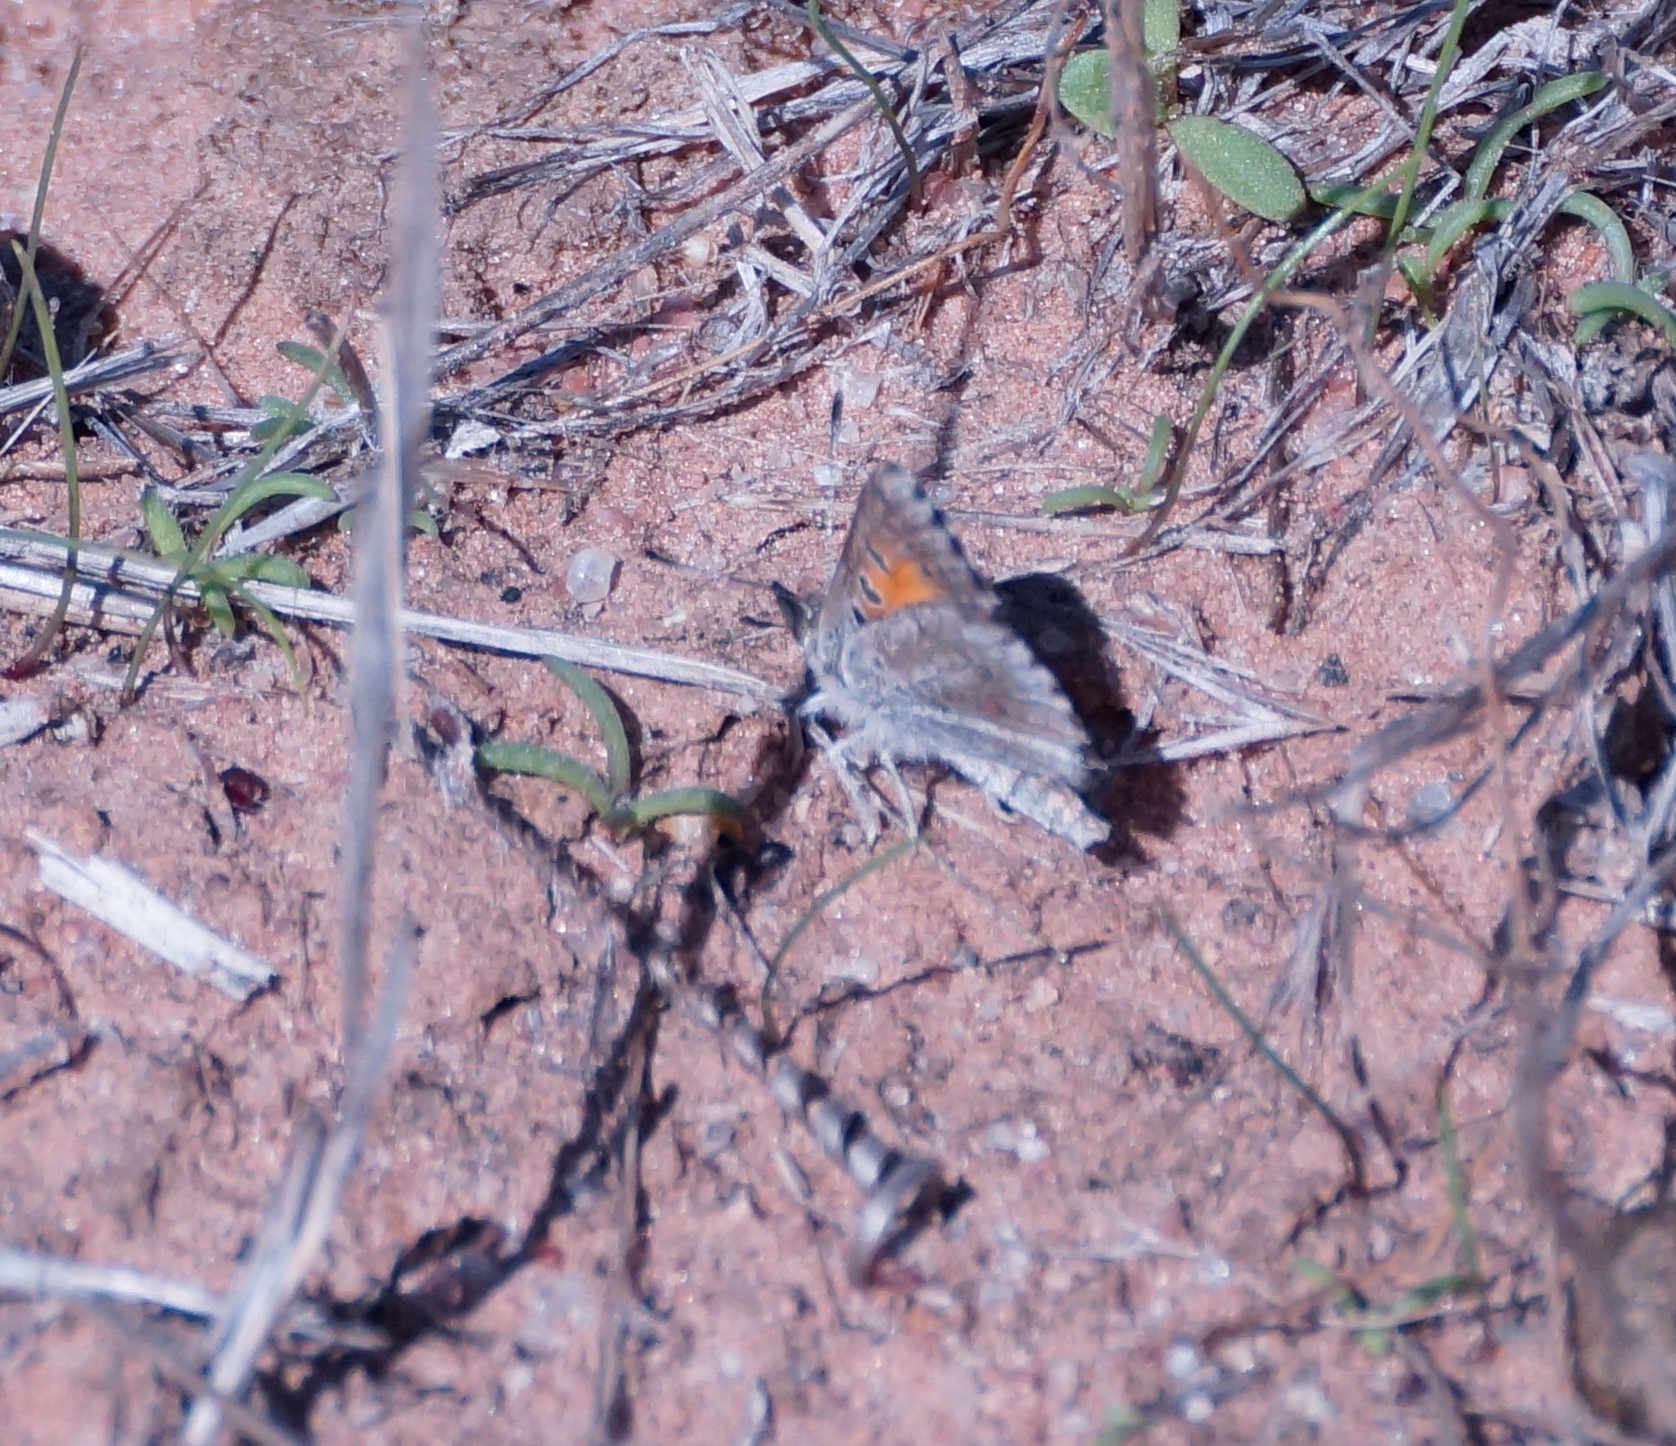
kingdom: Animalia
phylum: Arthropoda
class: Insecta
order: Lepidoptera
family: Lycaenidae
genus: Lucia
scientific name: Lucia limbaria
